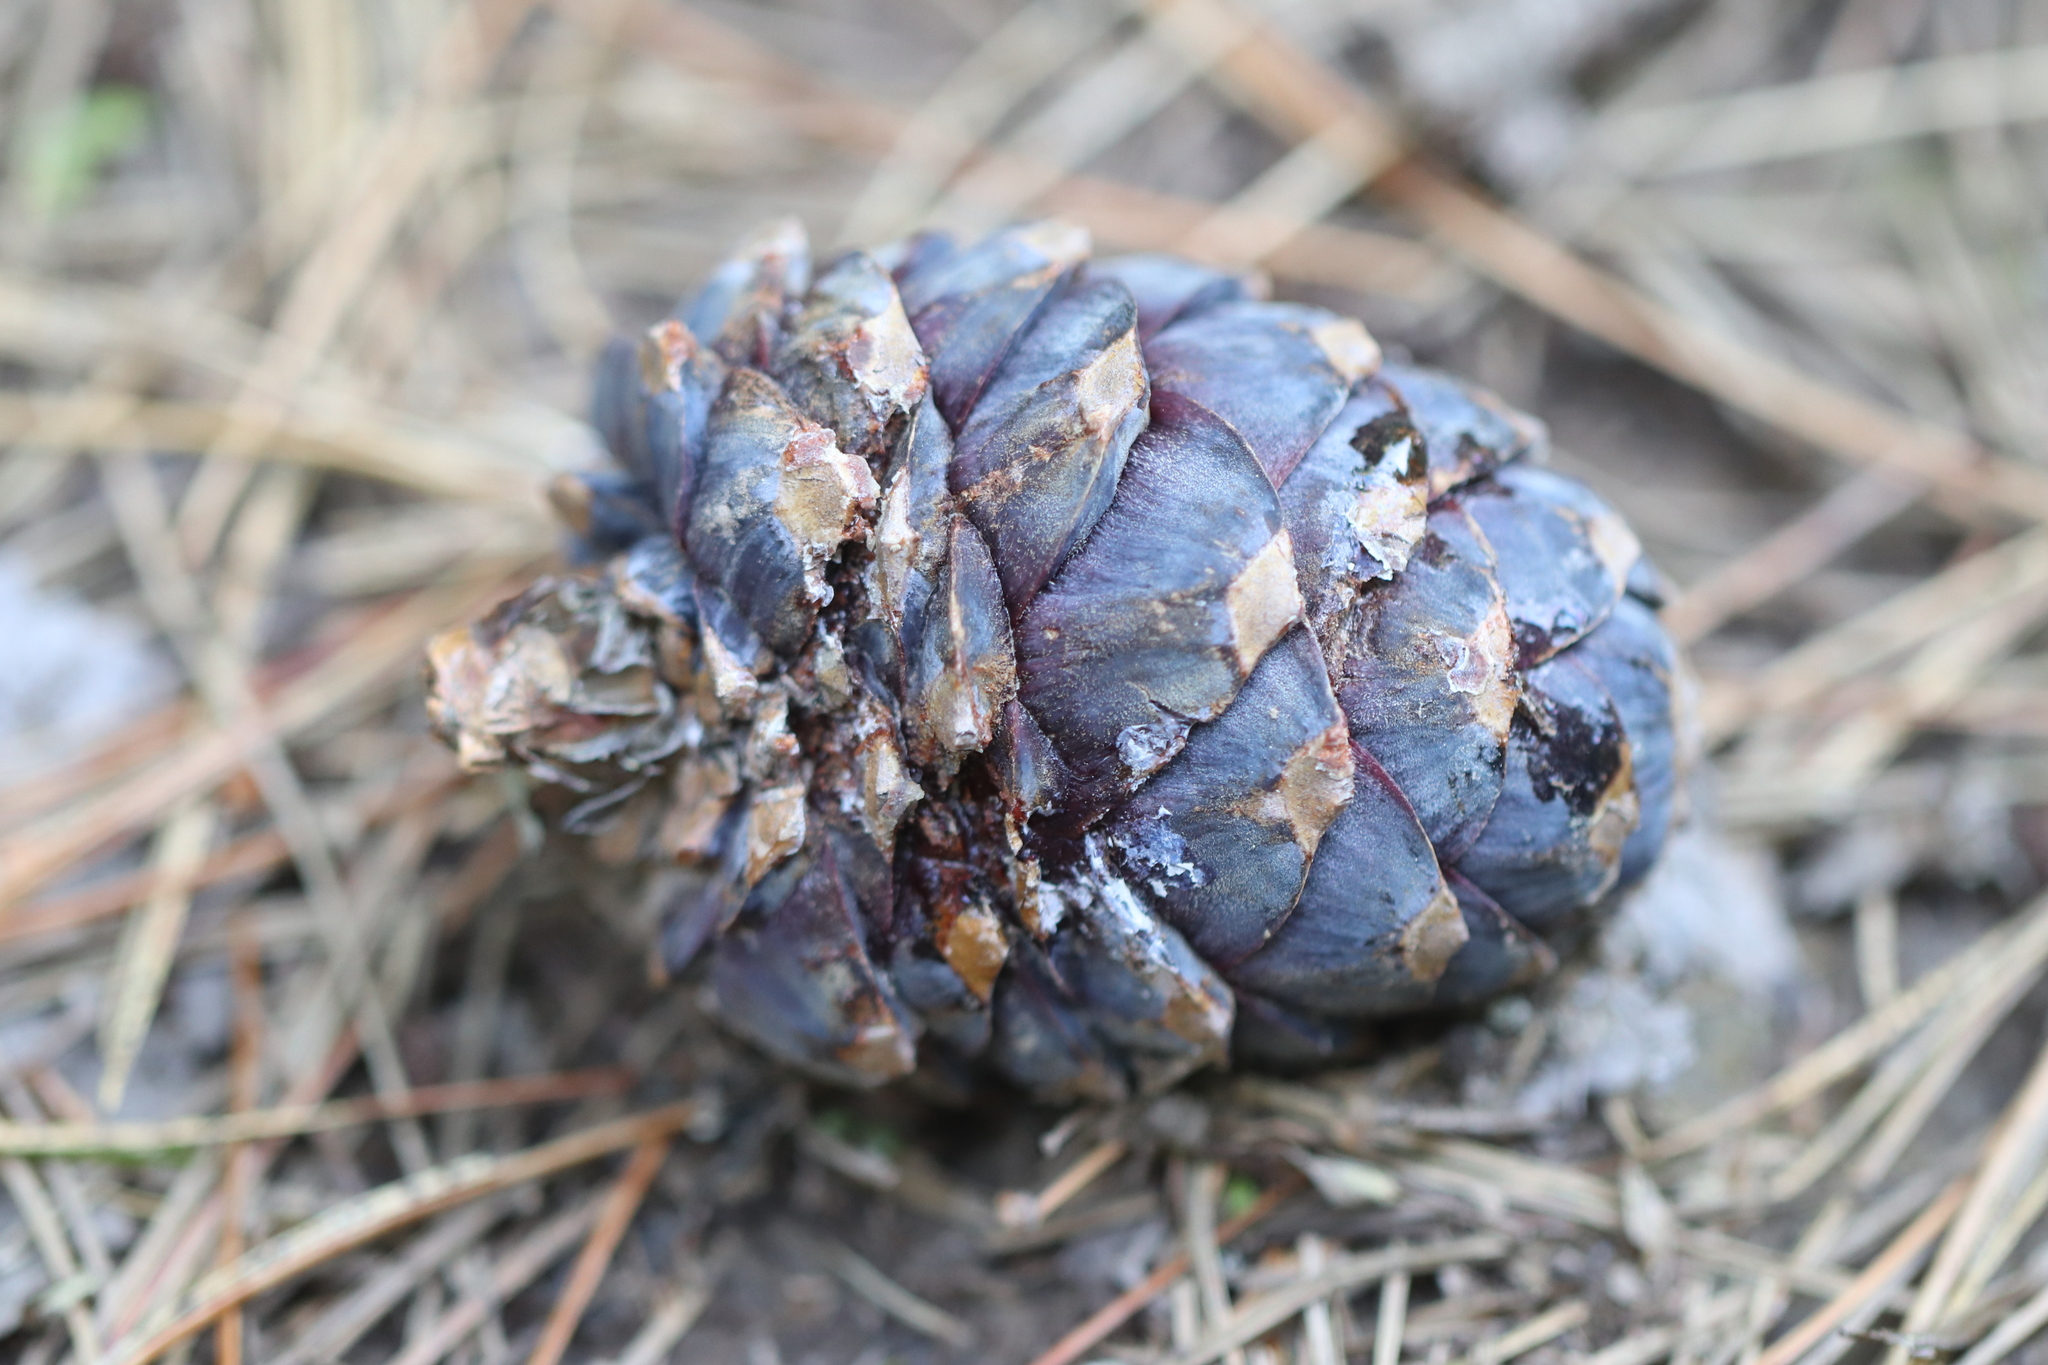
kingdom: Plantae
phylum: Tracheophyta
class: Pinopsida
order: Pinales
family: Pinaceae
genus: Pinus
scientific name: Pinus sibirica
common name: Siberian pine
